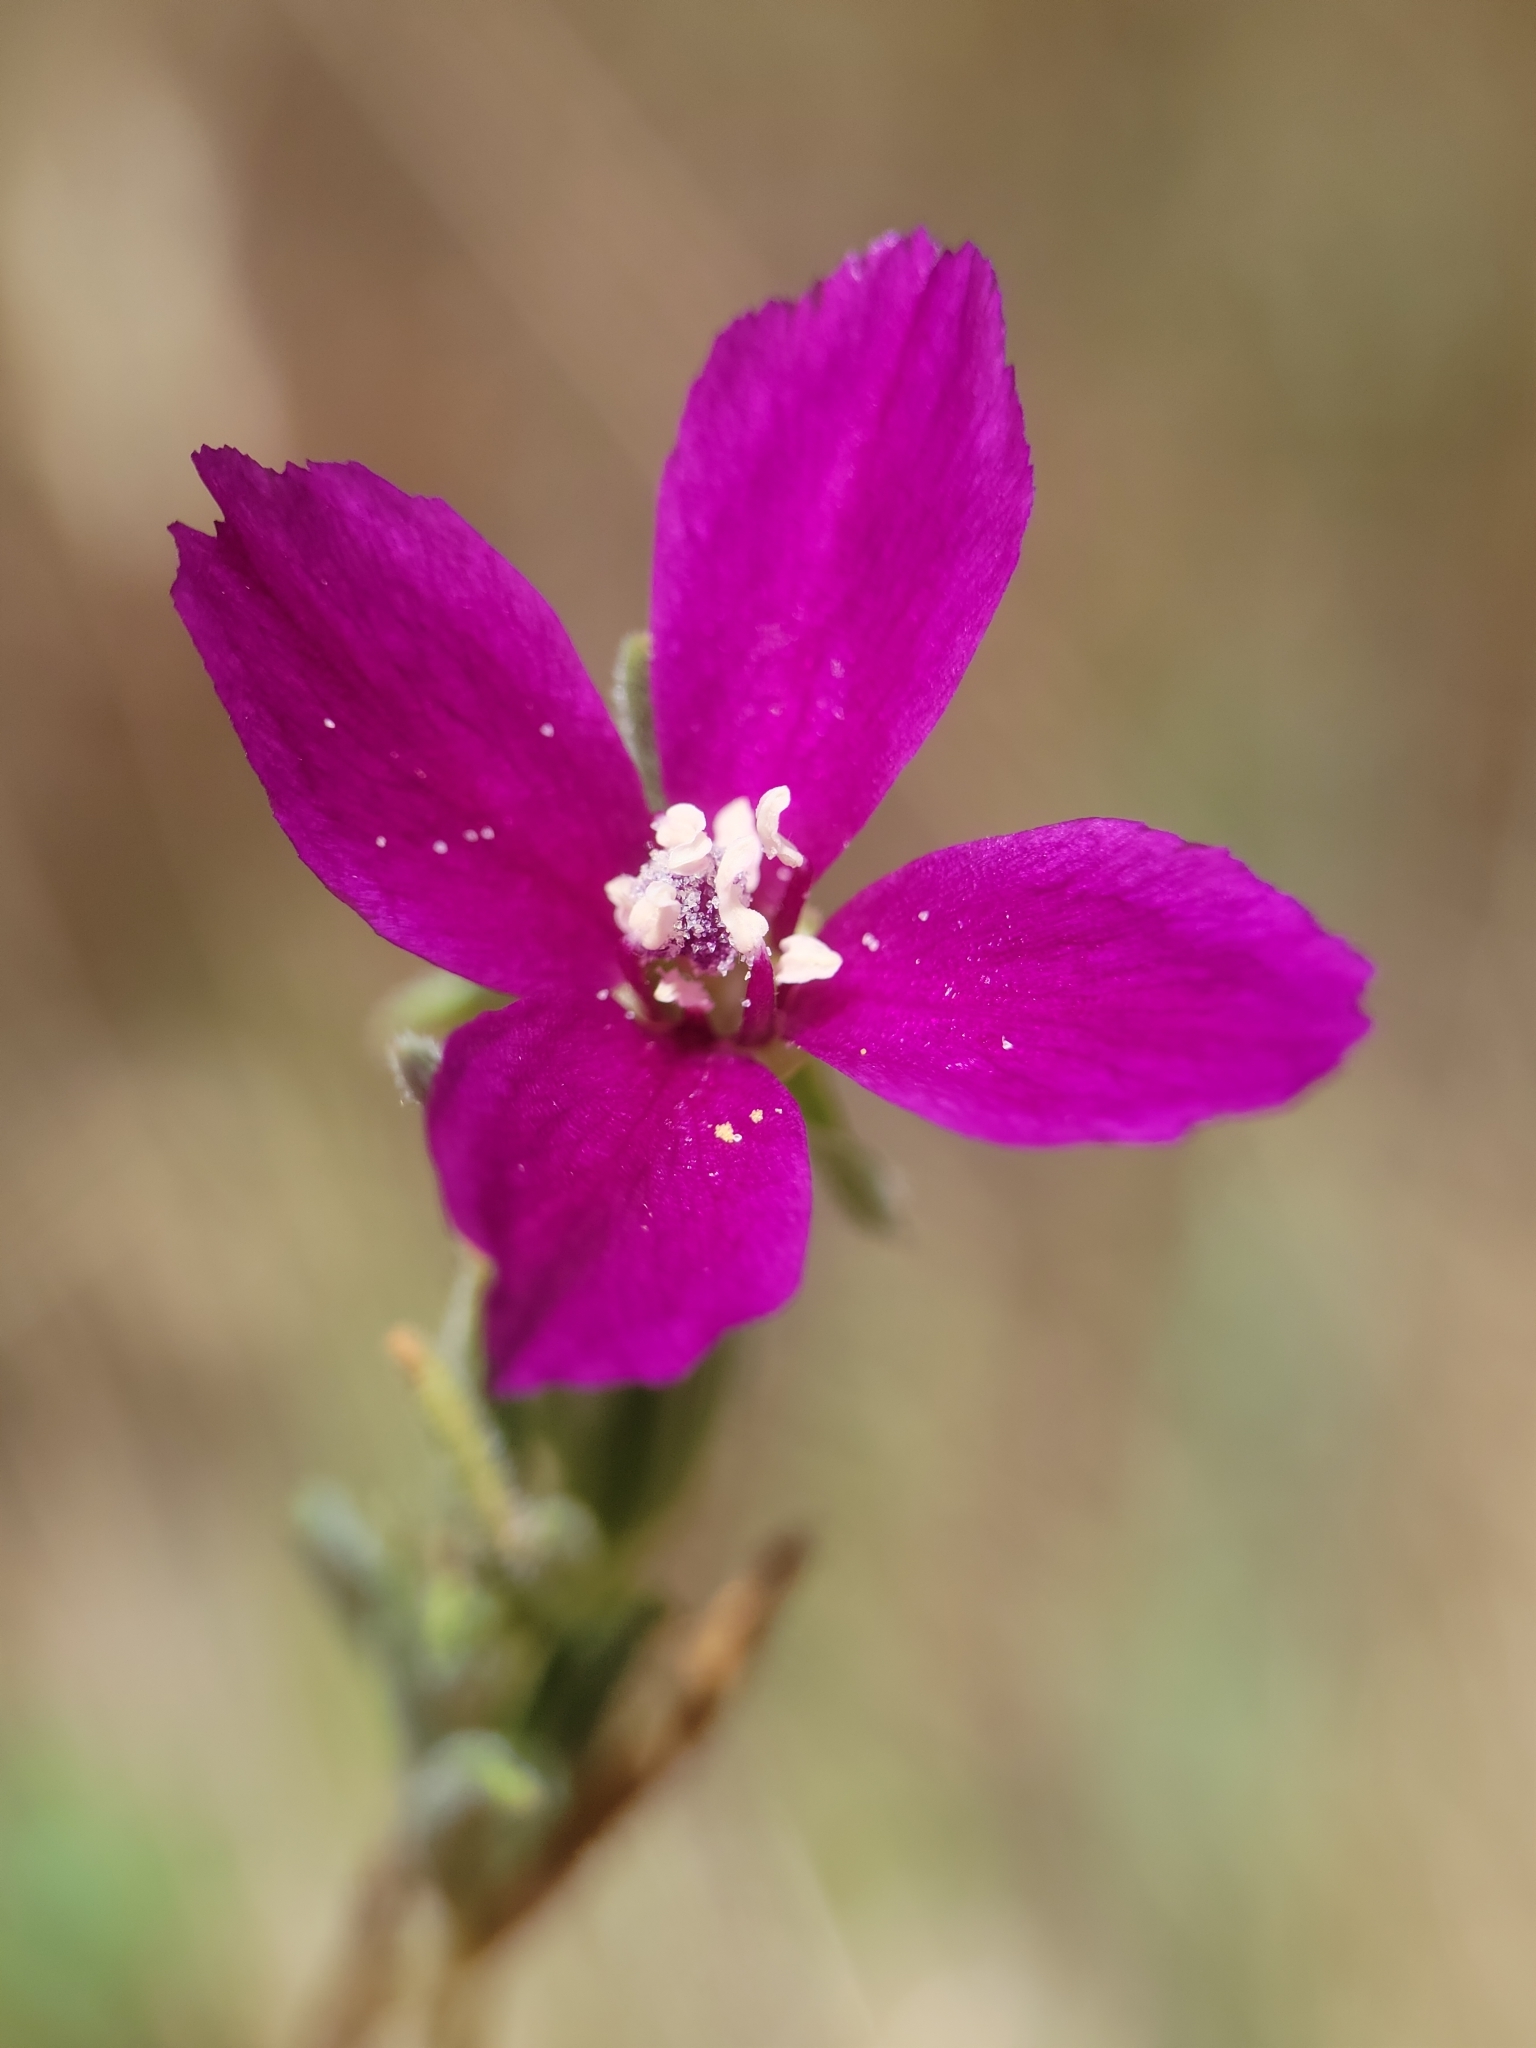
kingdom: Plantae
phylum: Tracheophyta
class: Magnoliopsida
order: Myrtales
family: Onagraceae
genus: Clarkia
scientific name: Clarkia purpurea
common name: Purple clarkia
